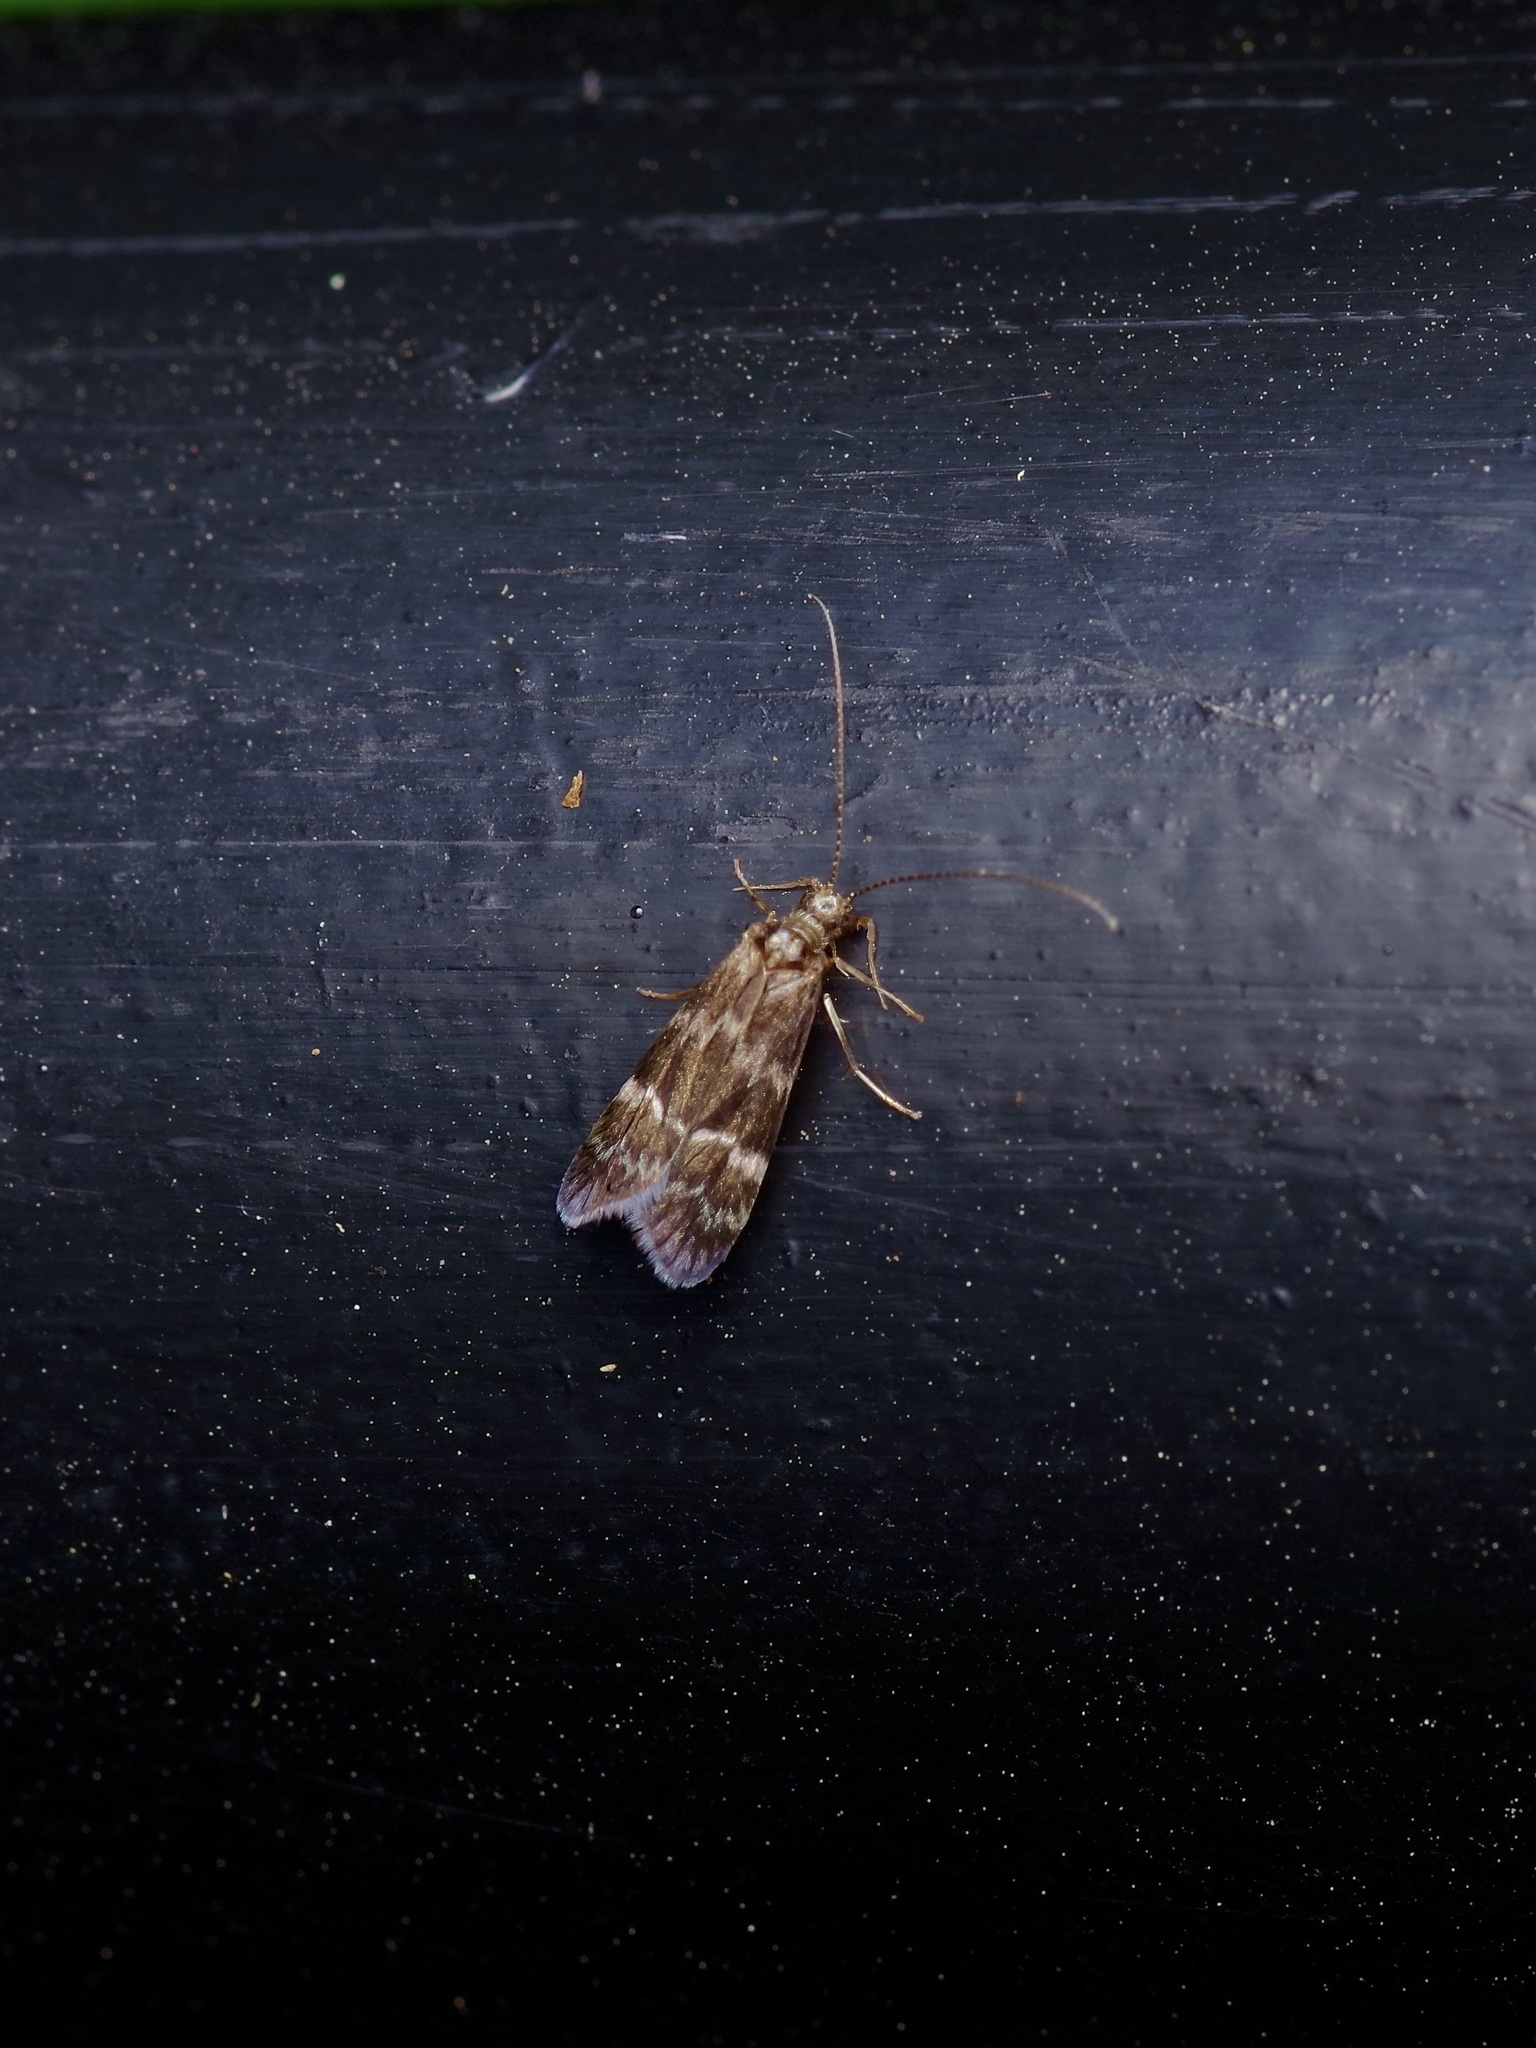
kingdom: Animalia
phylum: Arthropoda
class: Insecta
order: Trichoptera
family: Hydropsychidae
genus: Smicridea
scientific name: Smicridea fasciatella
